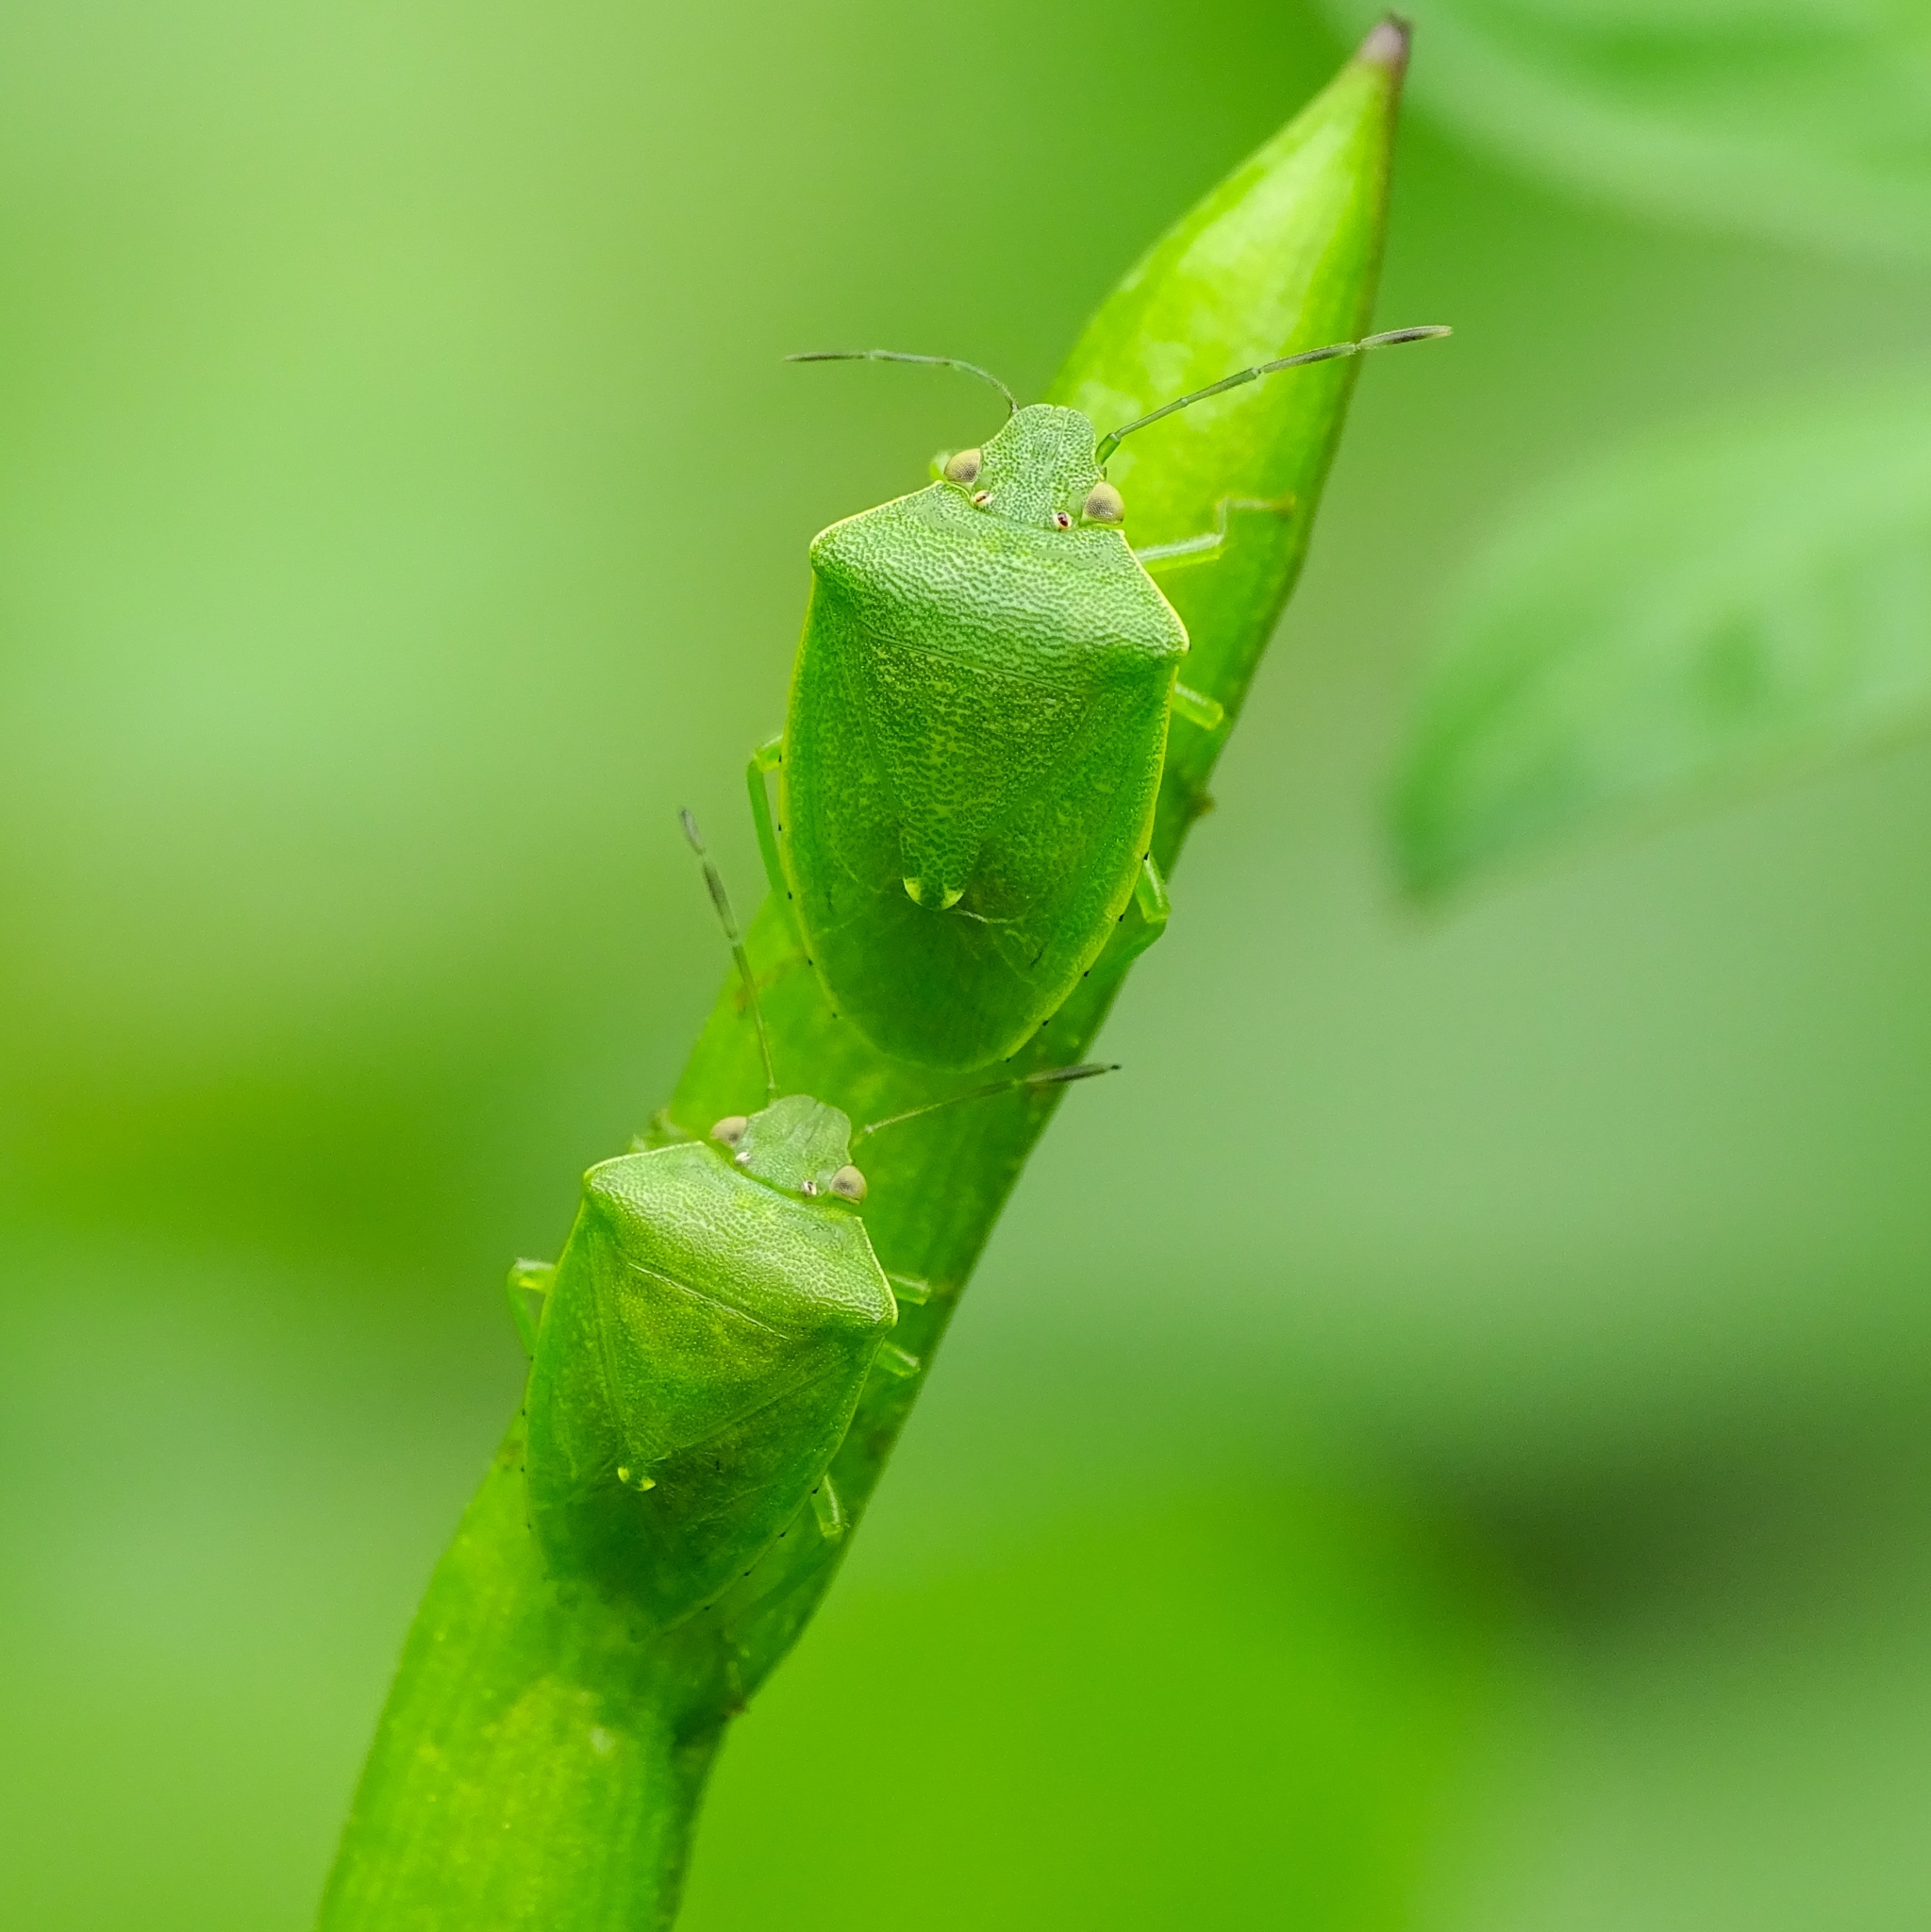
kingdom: Animalia
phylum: Arthropoda
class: Insecta
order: Hemiptera
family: Pentatomidae
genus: Acrosternum
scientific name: Acrosternum gramineum
